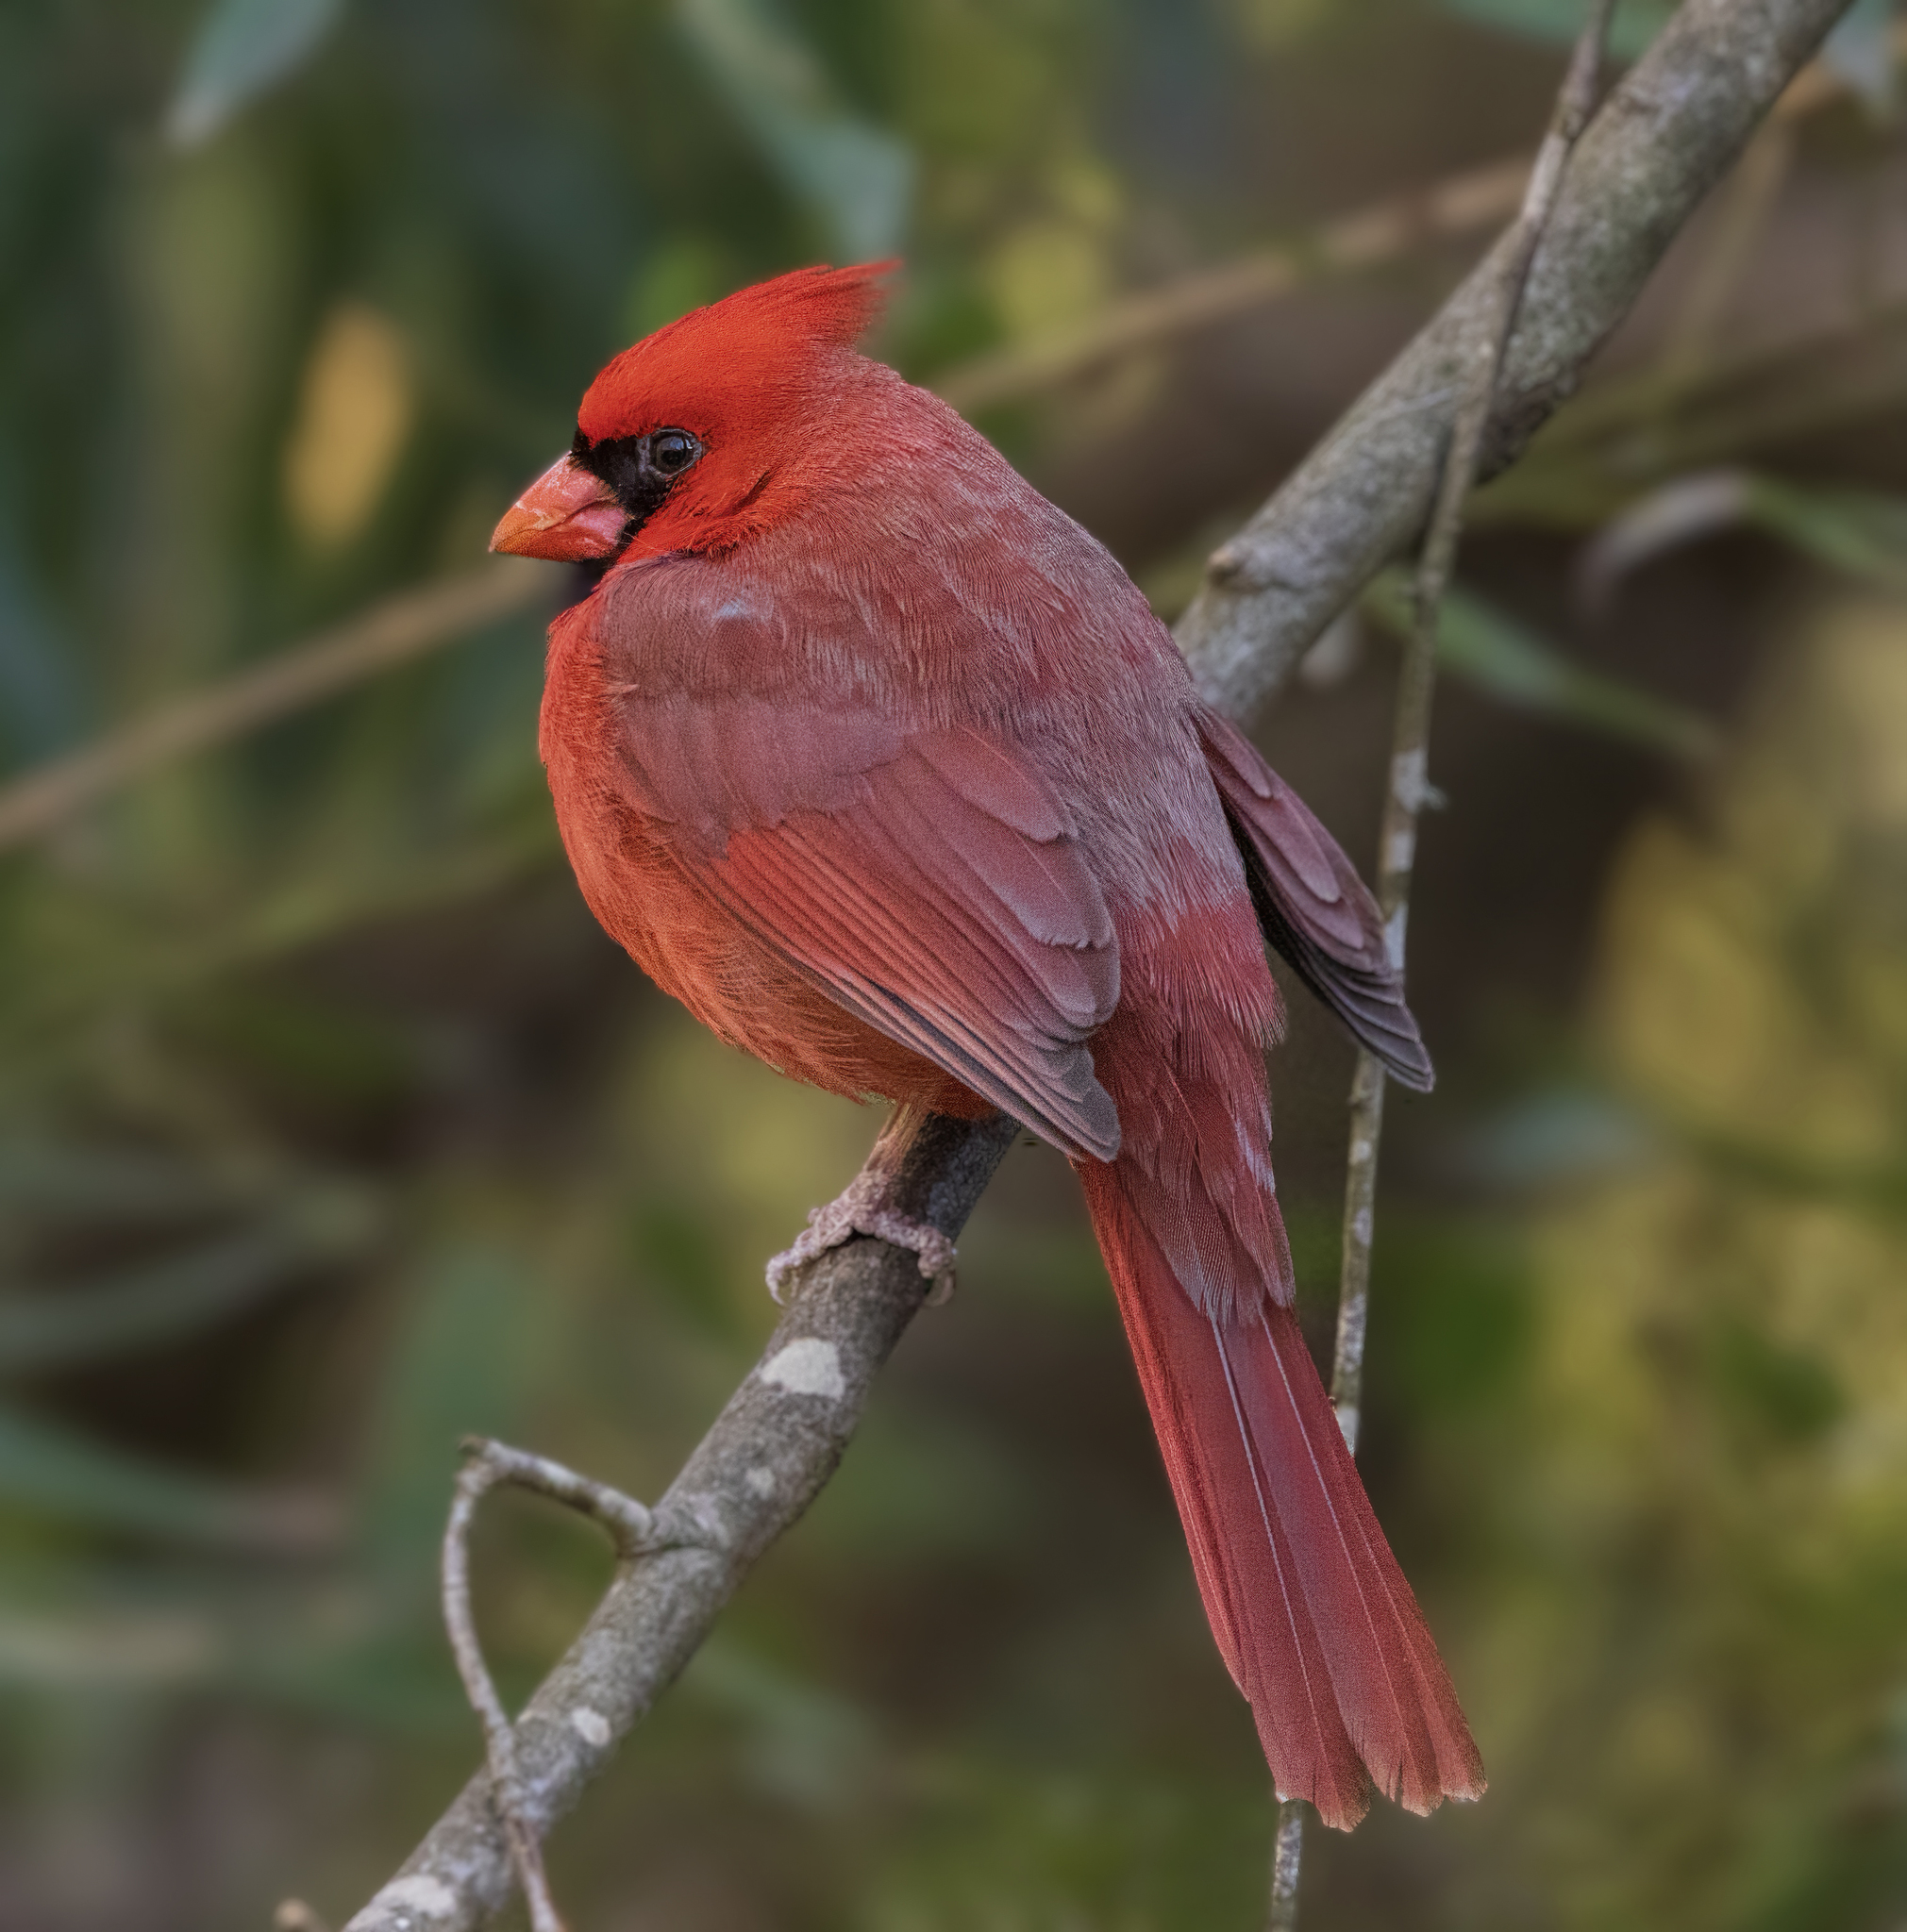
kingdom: Animalia
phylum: Chordata
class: Aves
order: Passeriformes
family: Cardinalidae
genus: Cardinalis
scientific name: Cardinalis cardinalis
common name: Northern cardinal
